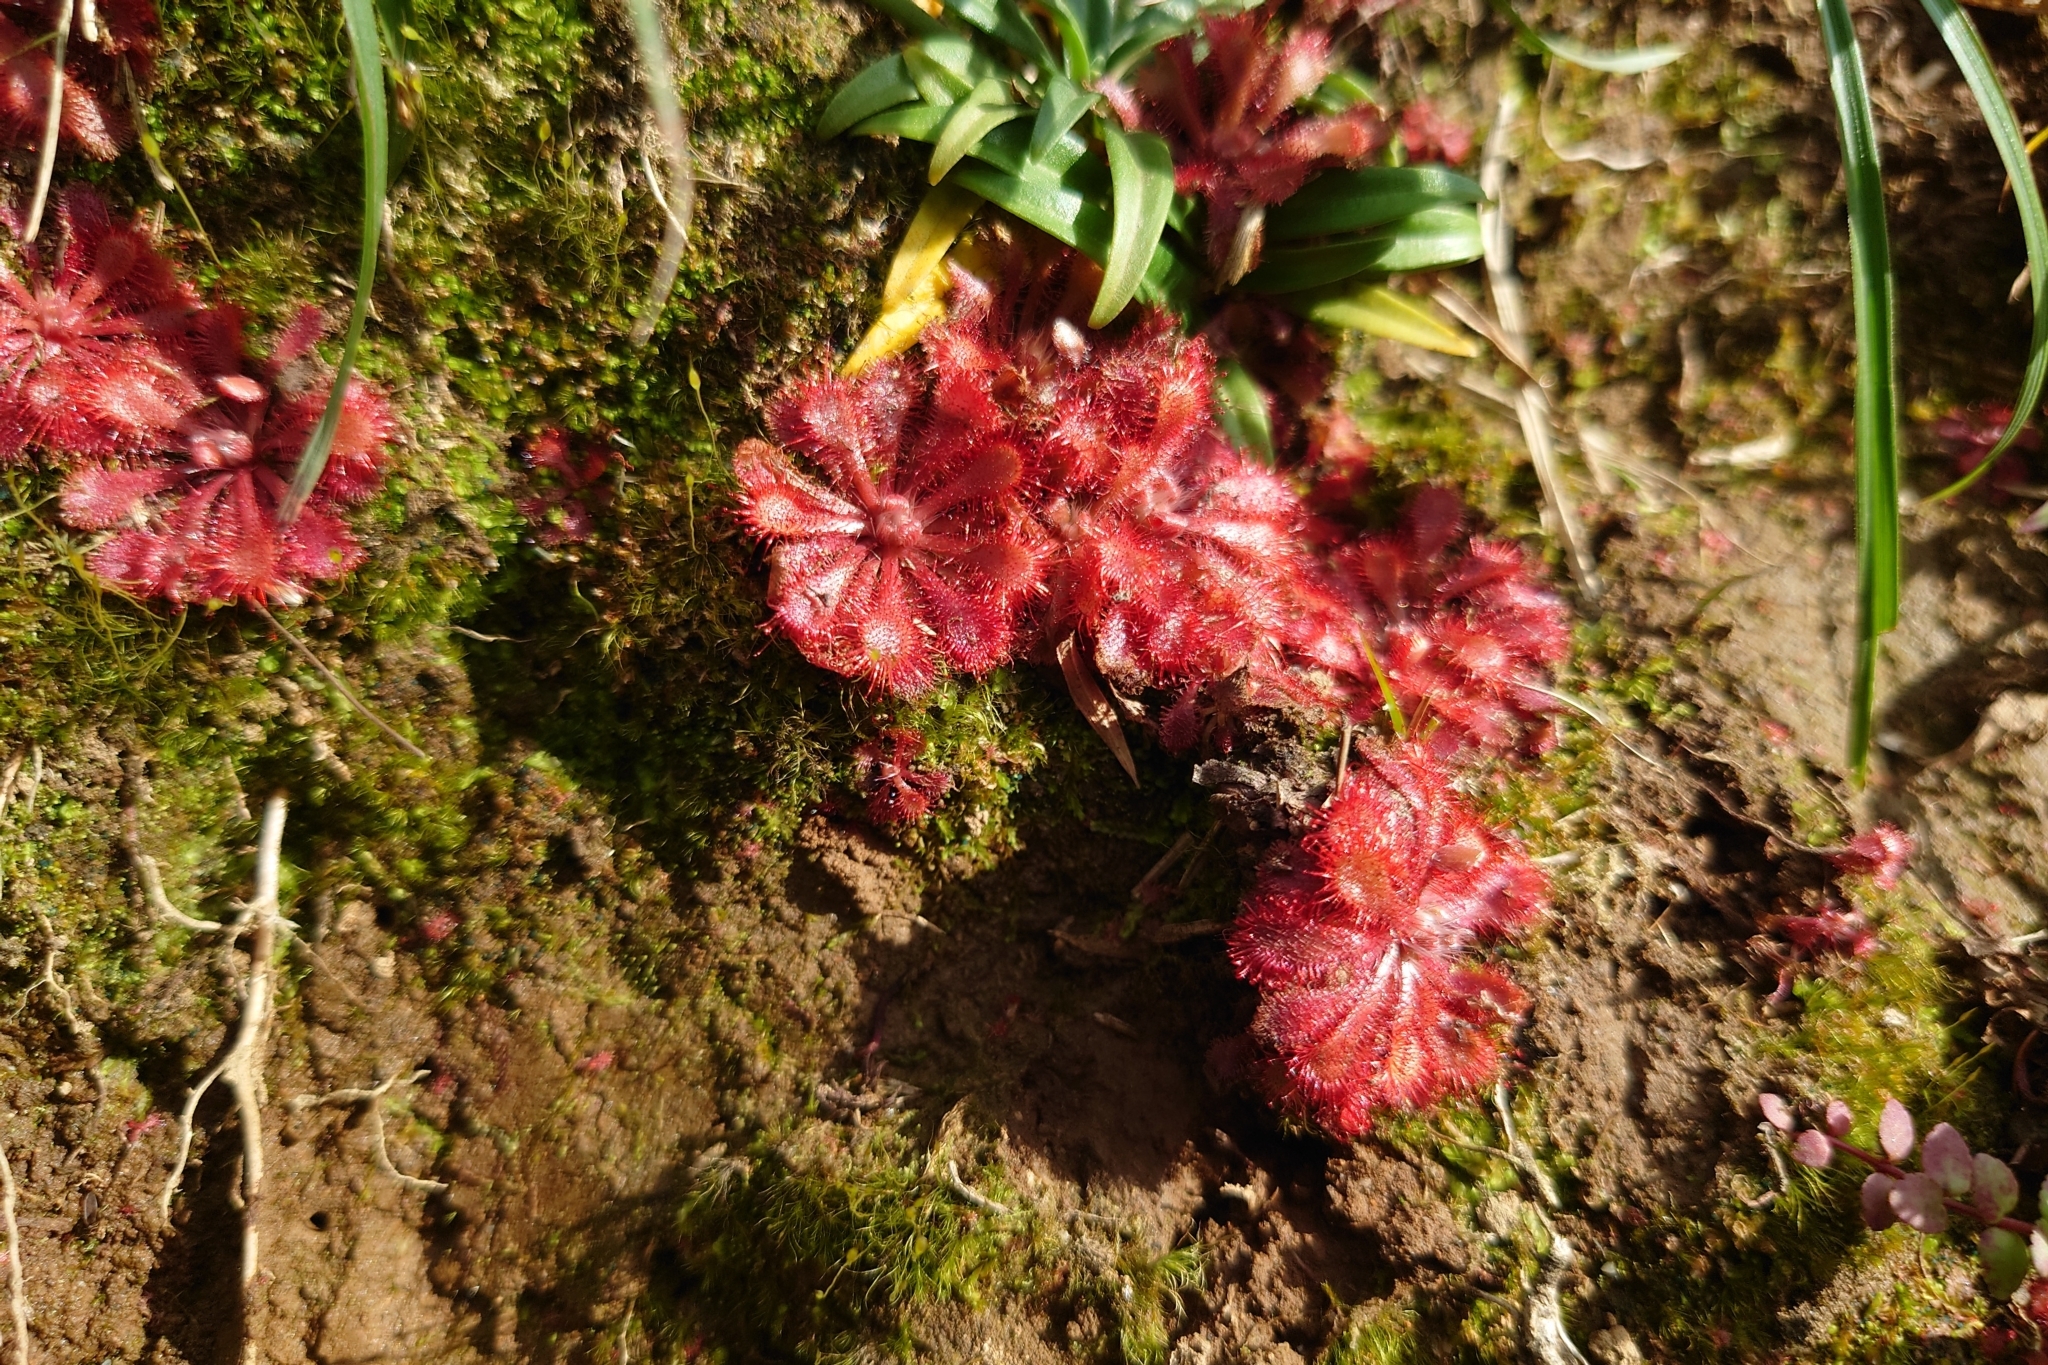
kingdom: Plantae
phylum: Tracheophyta
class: Magnoliopsida
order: Caryophyllales
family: Droseraceae
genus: Drosera
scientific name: Drosera spatulata
